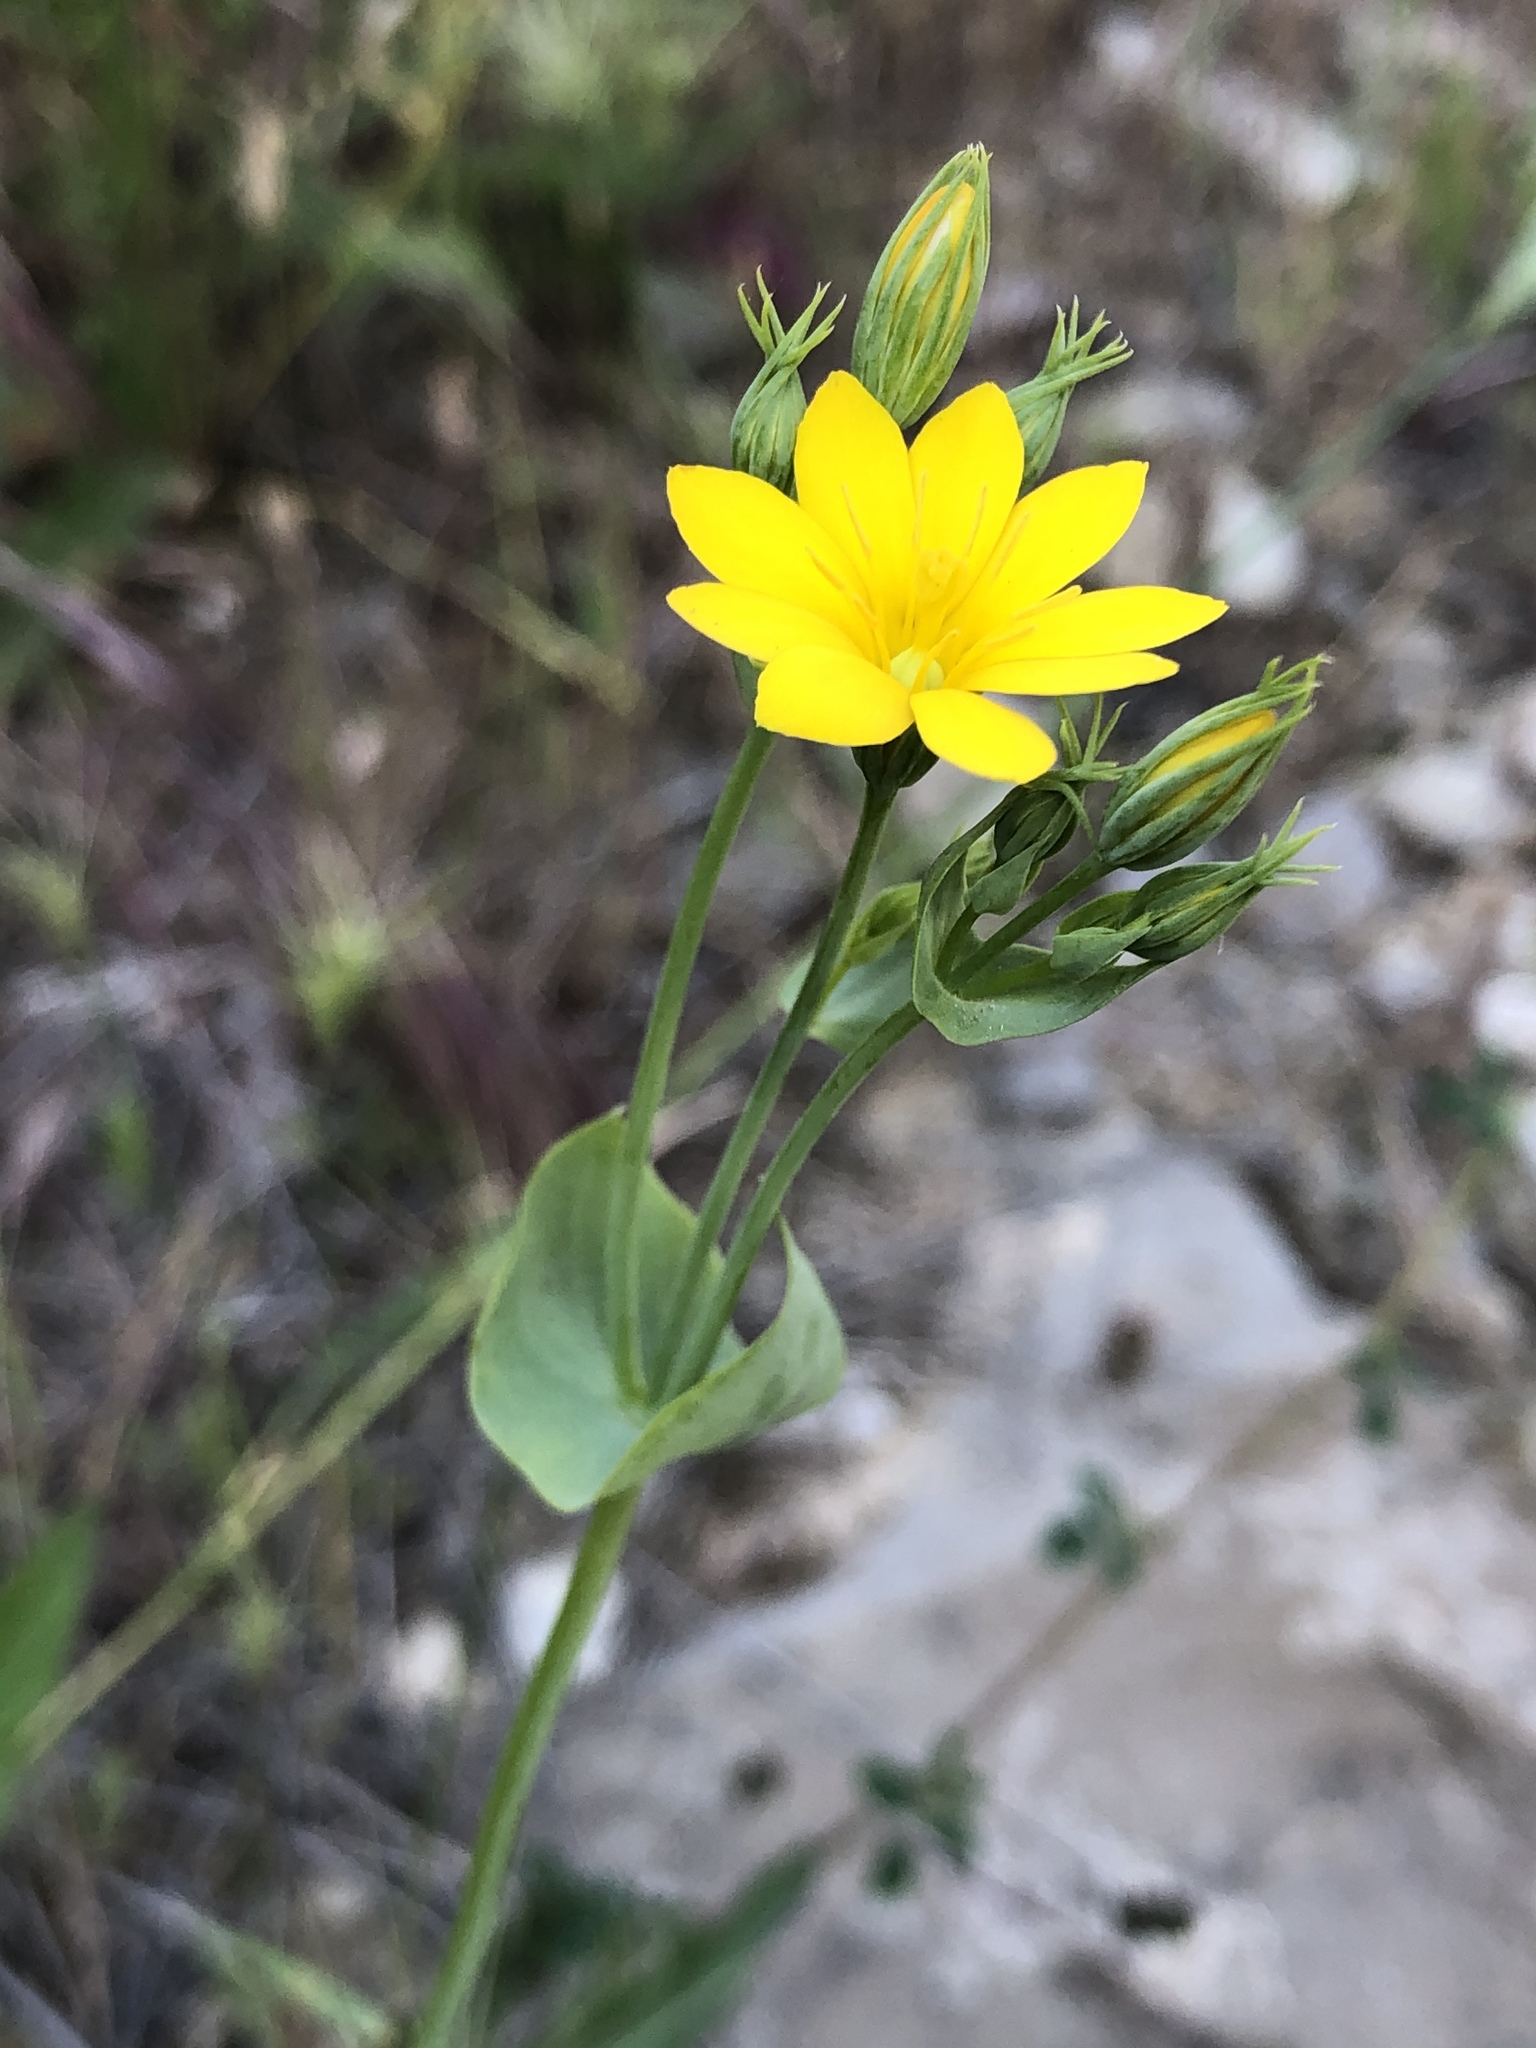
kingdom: Plantae
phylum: Tracheophyta
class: Magnoliopsida
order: Gentianales
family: Gentianaceae
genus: Blackstonia
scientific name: Blackstonia perfoliata
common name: Yellow-wort
